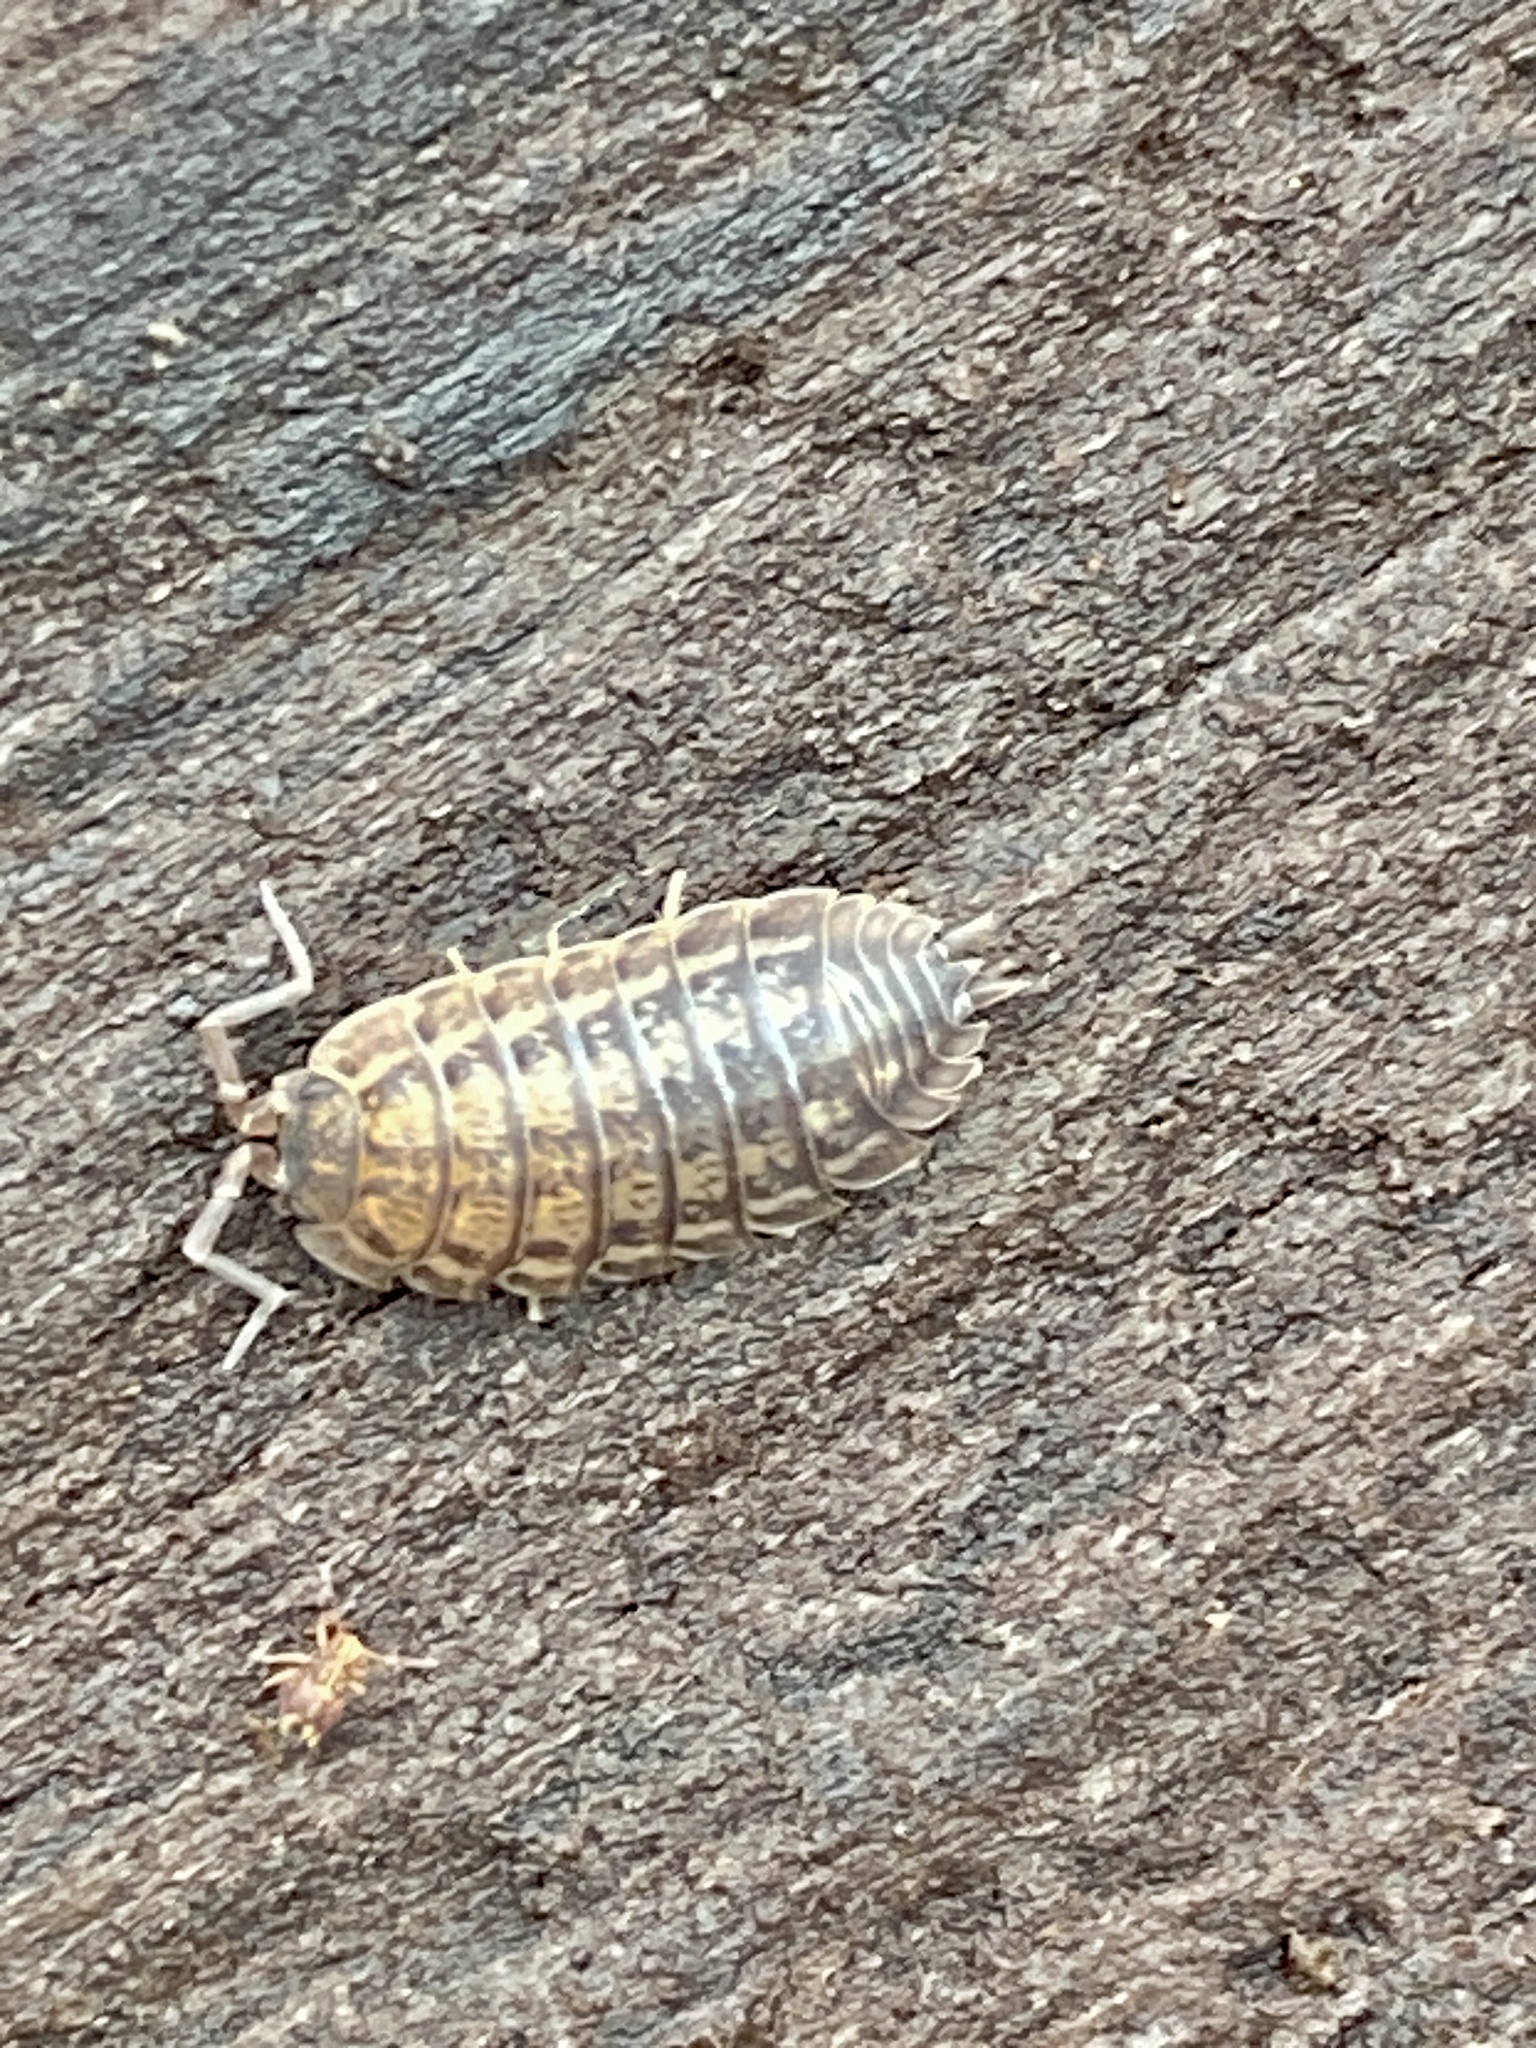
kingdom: Animalia
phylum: Arthropoda
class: Malacostraca
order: Isopoda
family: Trachelipodidae
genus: Trachelipus
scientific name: Trachelipus rathkii
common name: Isopod
